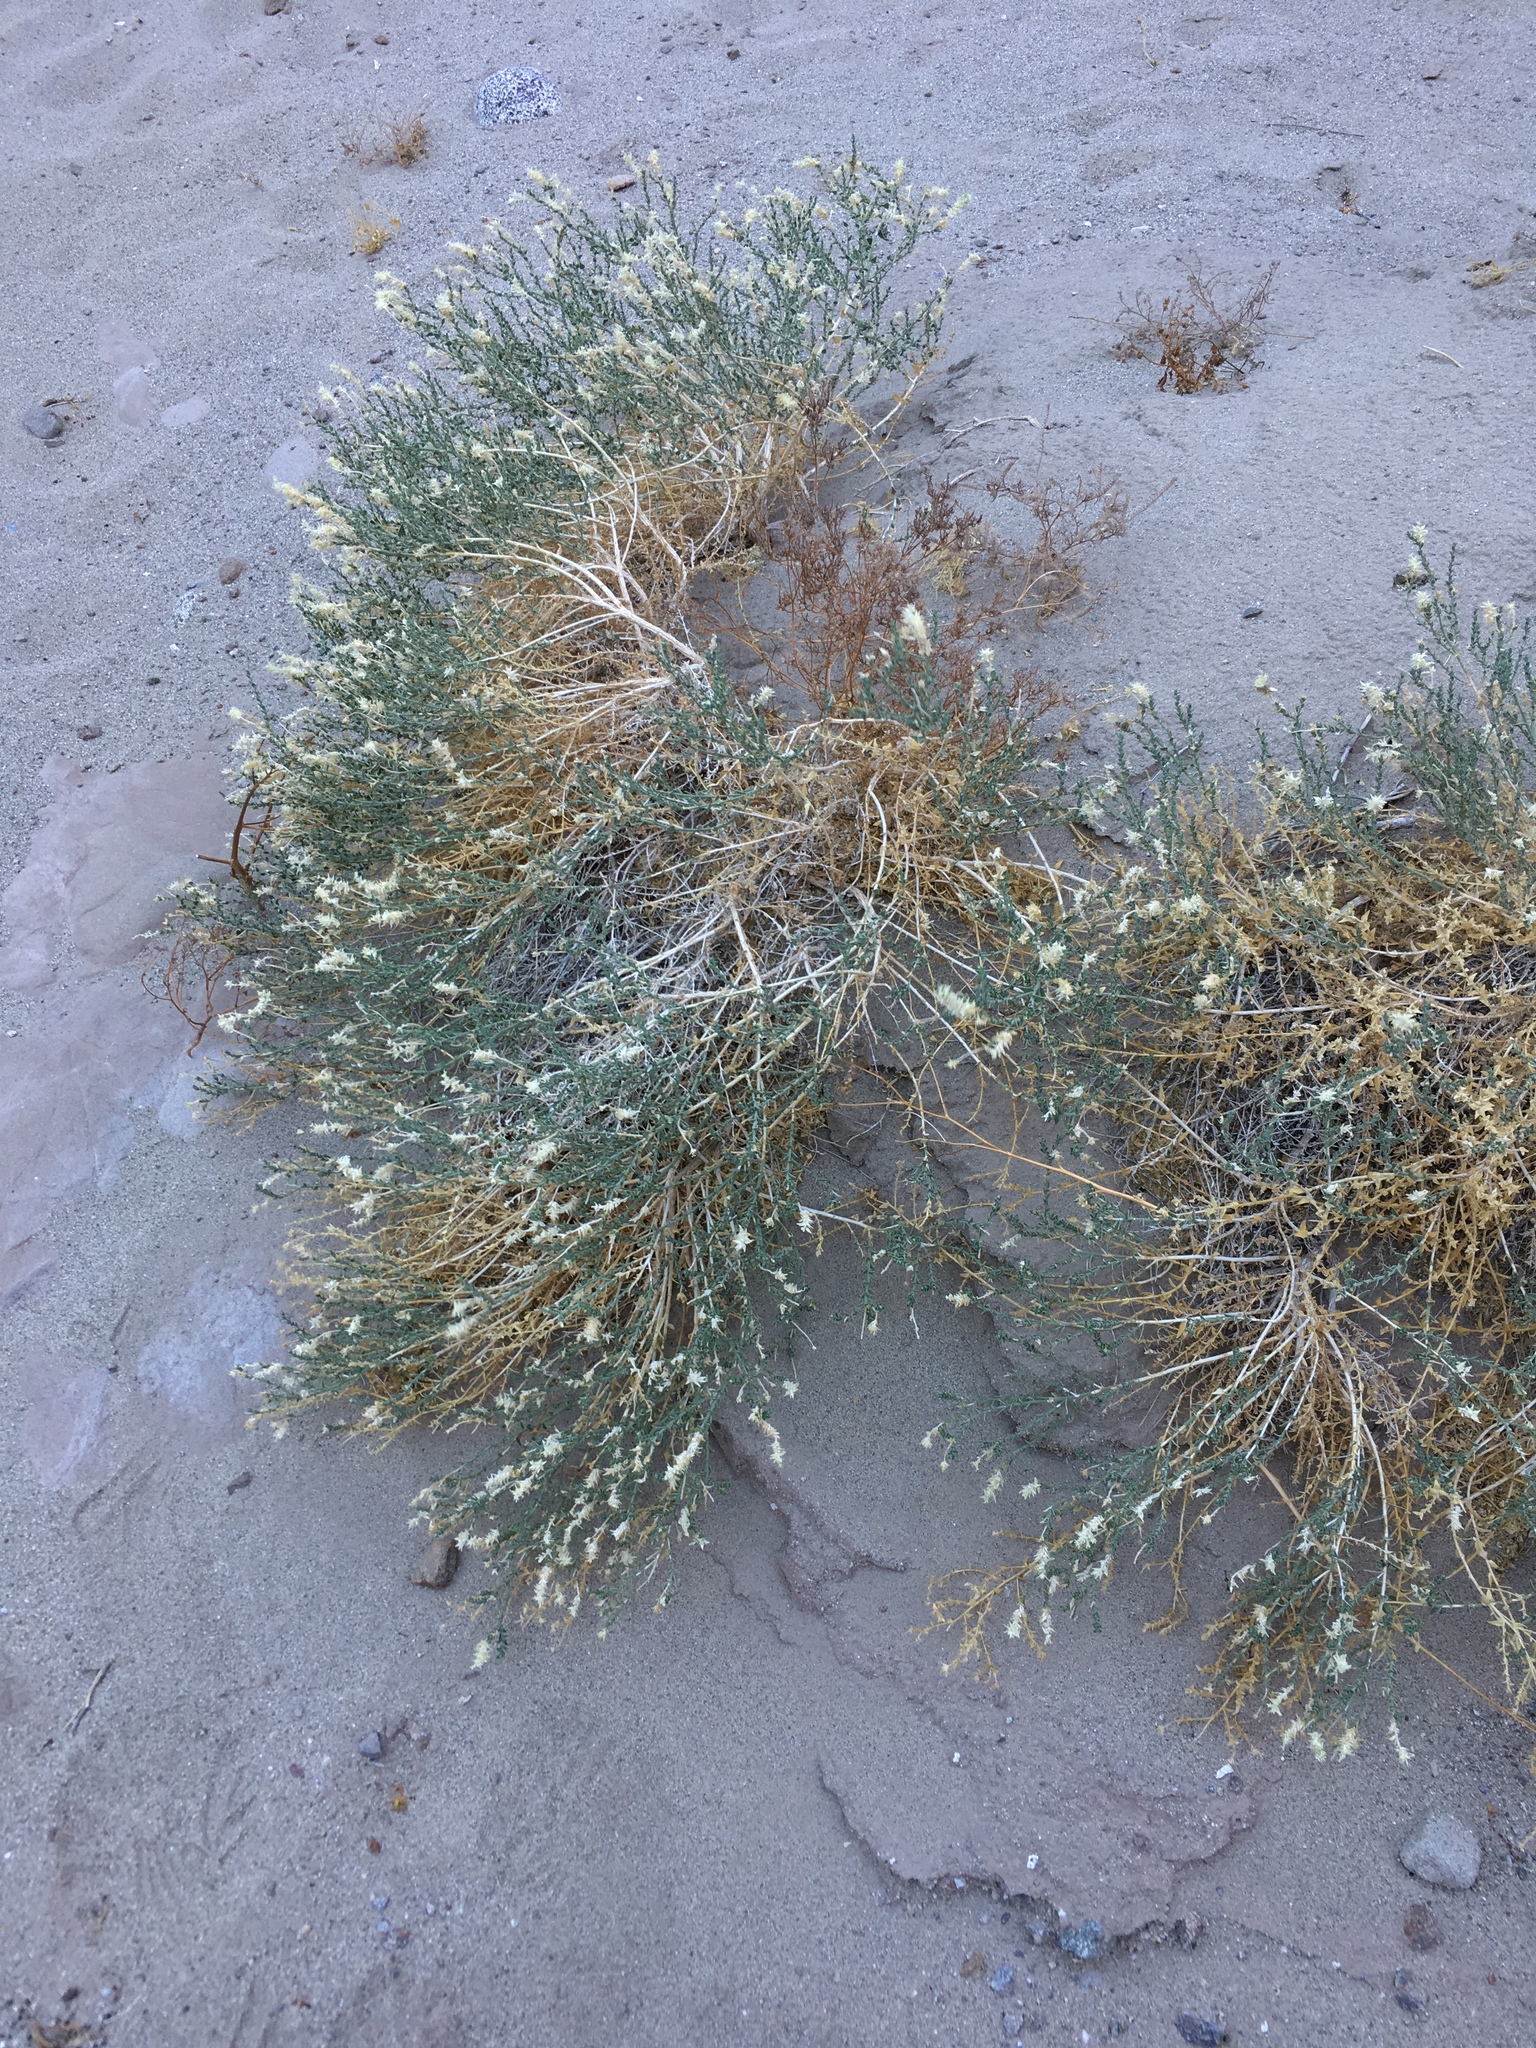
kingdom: Plantae
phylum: Tracheophyta
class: Magnoliopsida
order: Cornales
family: Loasaceae
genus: Petalonyx
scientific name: Petalonyx thurberi
